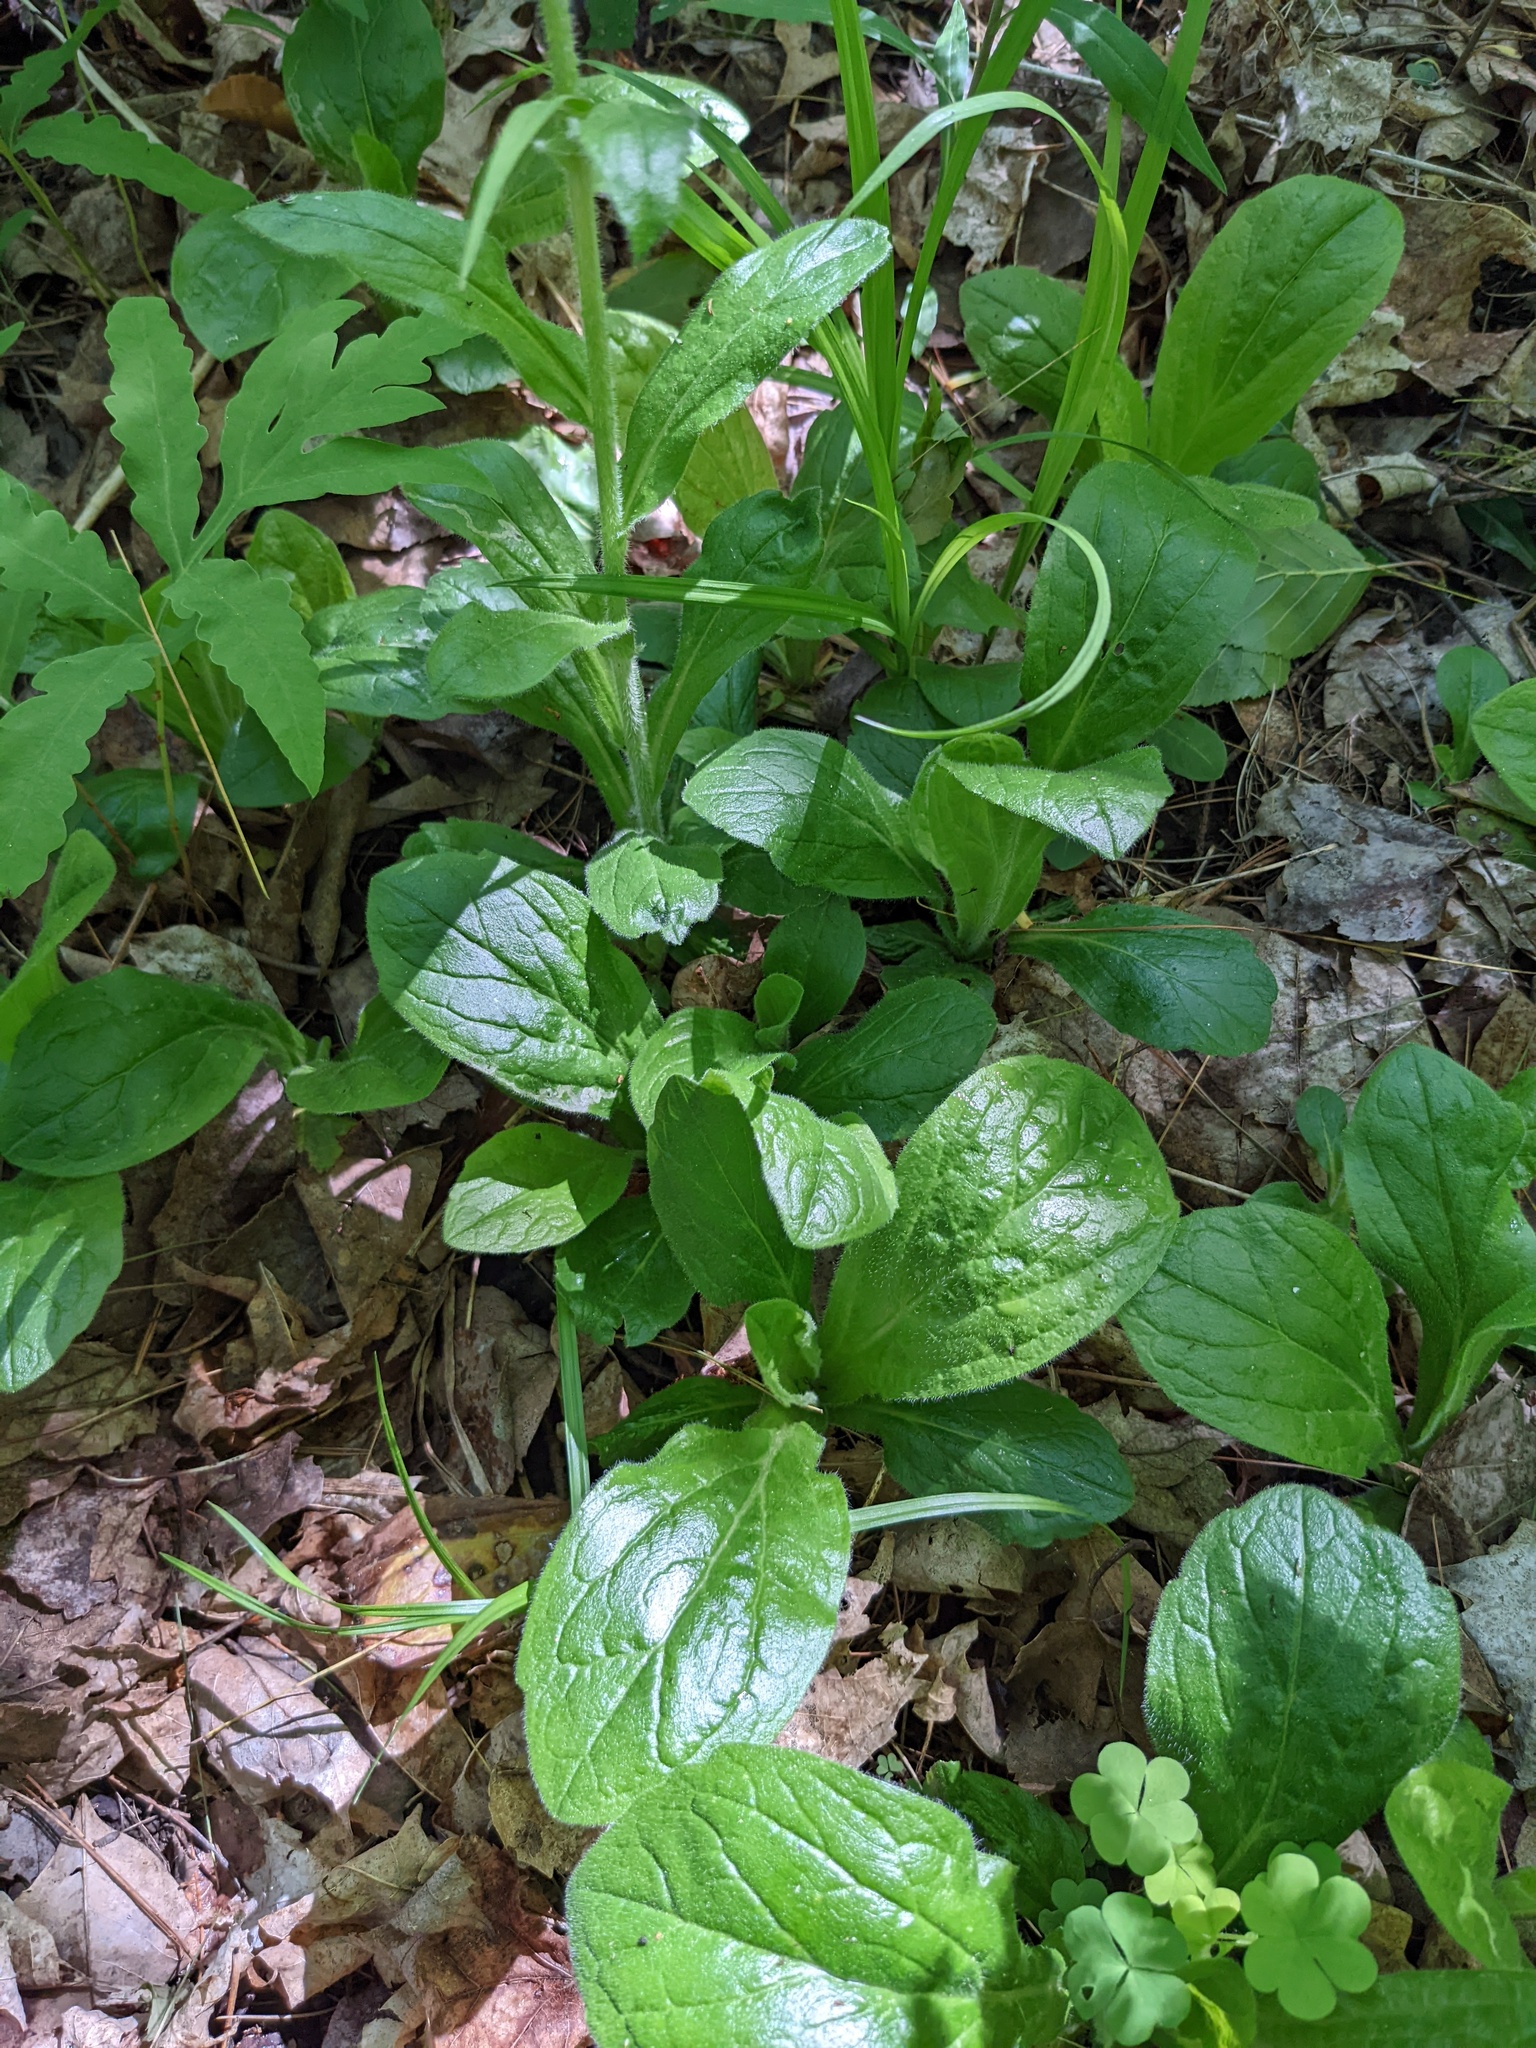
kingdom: Plantae
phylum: Tracheophyta
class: Magnoliopsida
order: Asterales
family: Asteraceae
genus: Erigeron
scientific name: Erigeron pulchellus
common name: Hairy fleabane
